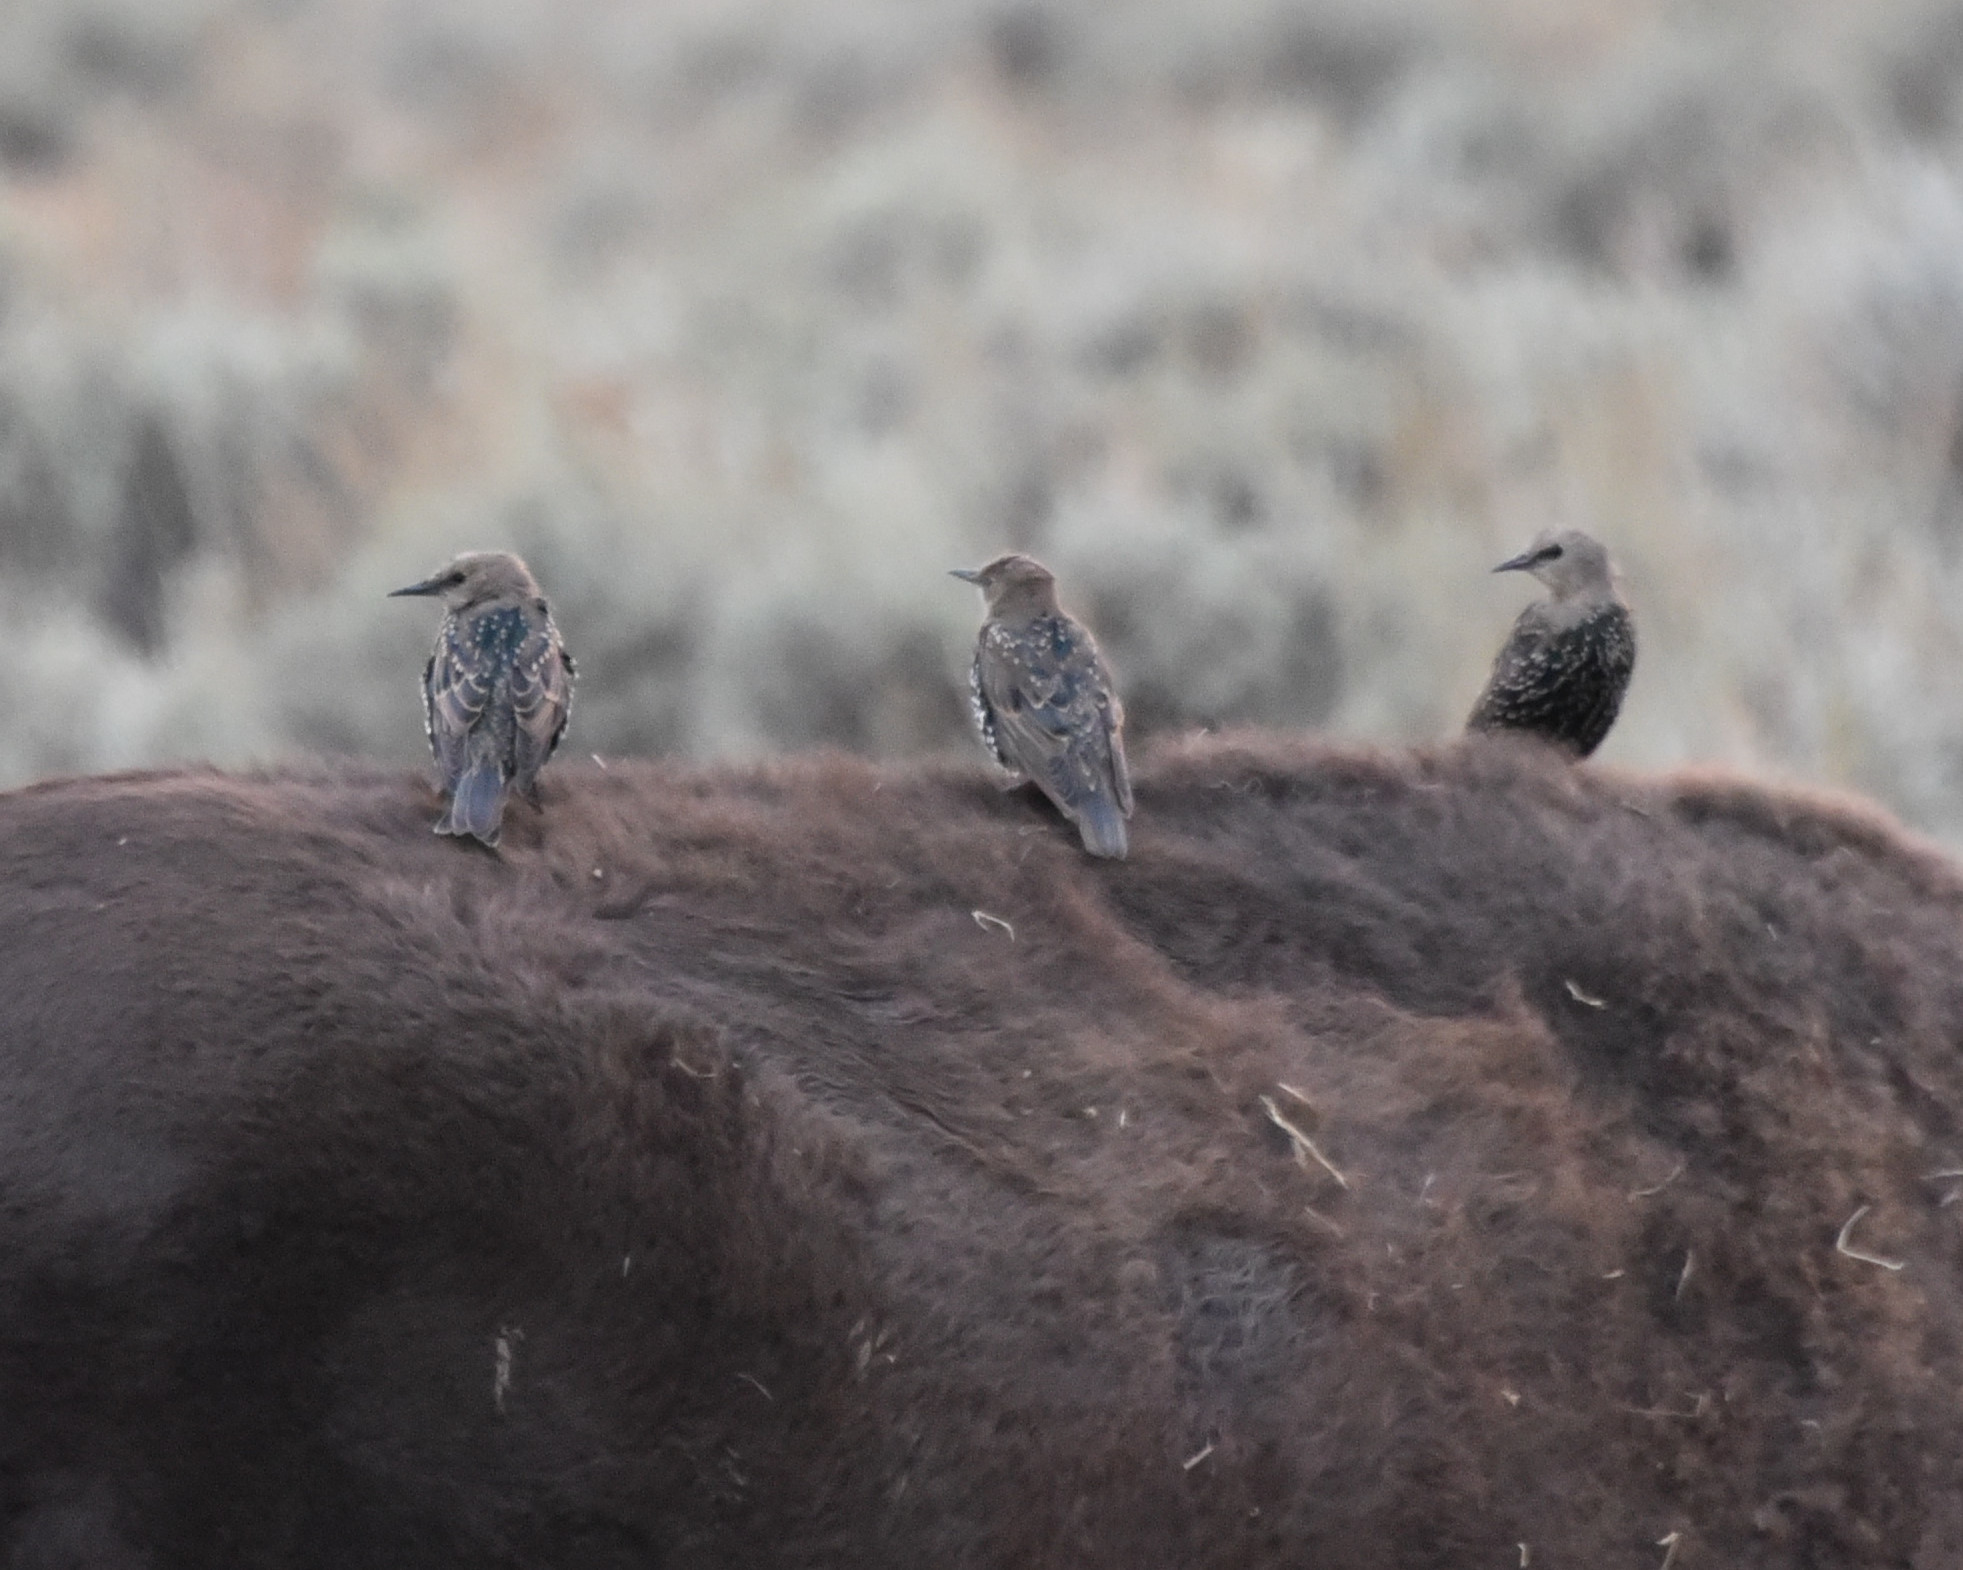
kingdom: Animalia
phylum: Chordata
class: Aves
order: Passeriformes
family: Sturnidae
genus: Sturnus
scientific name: Sturnus vulgaris
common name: Common starling
